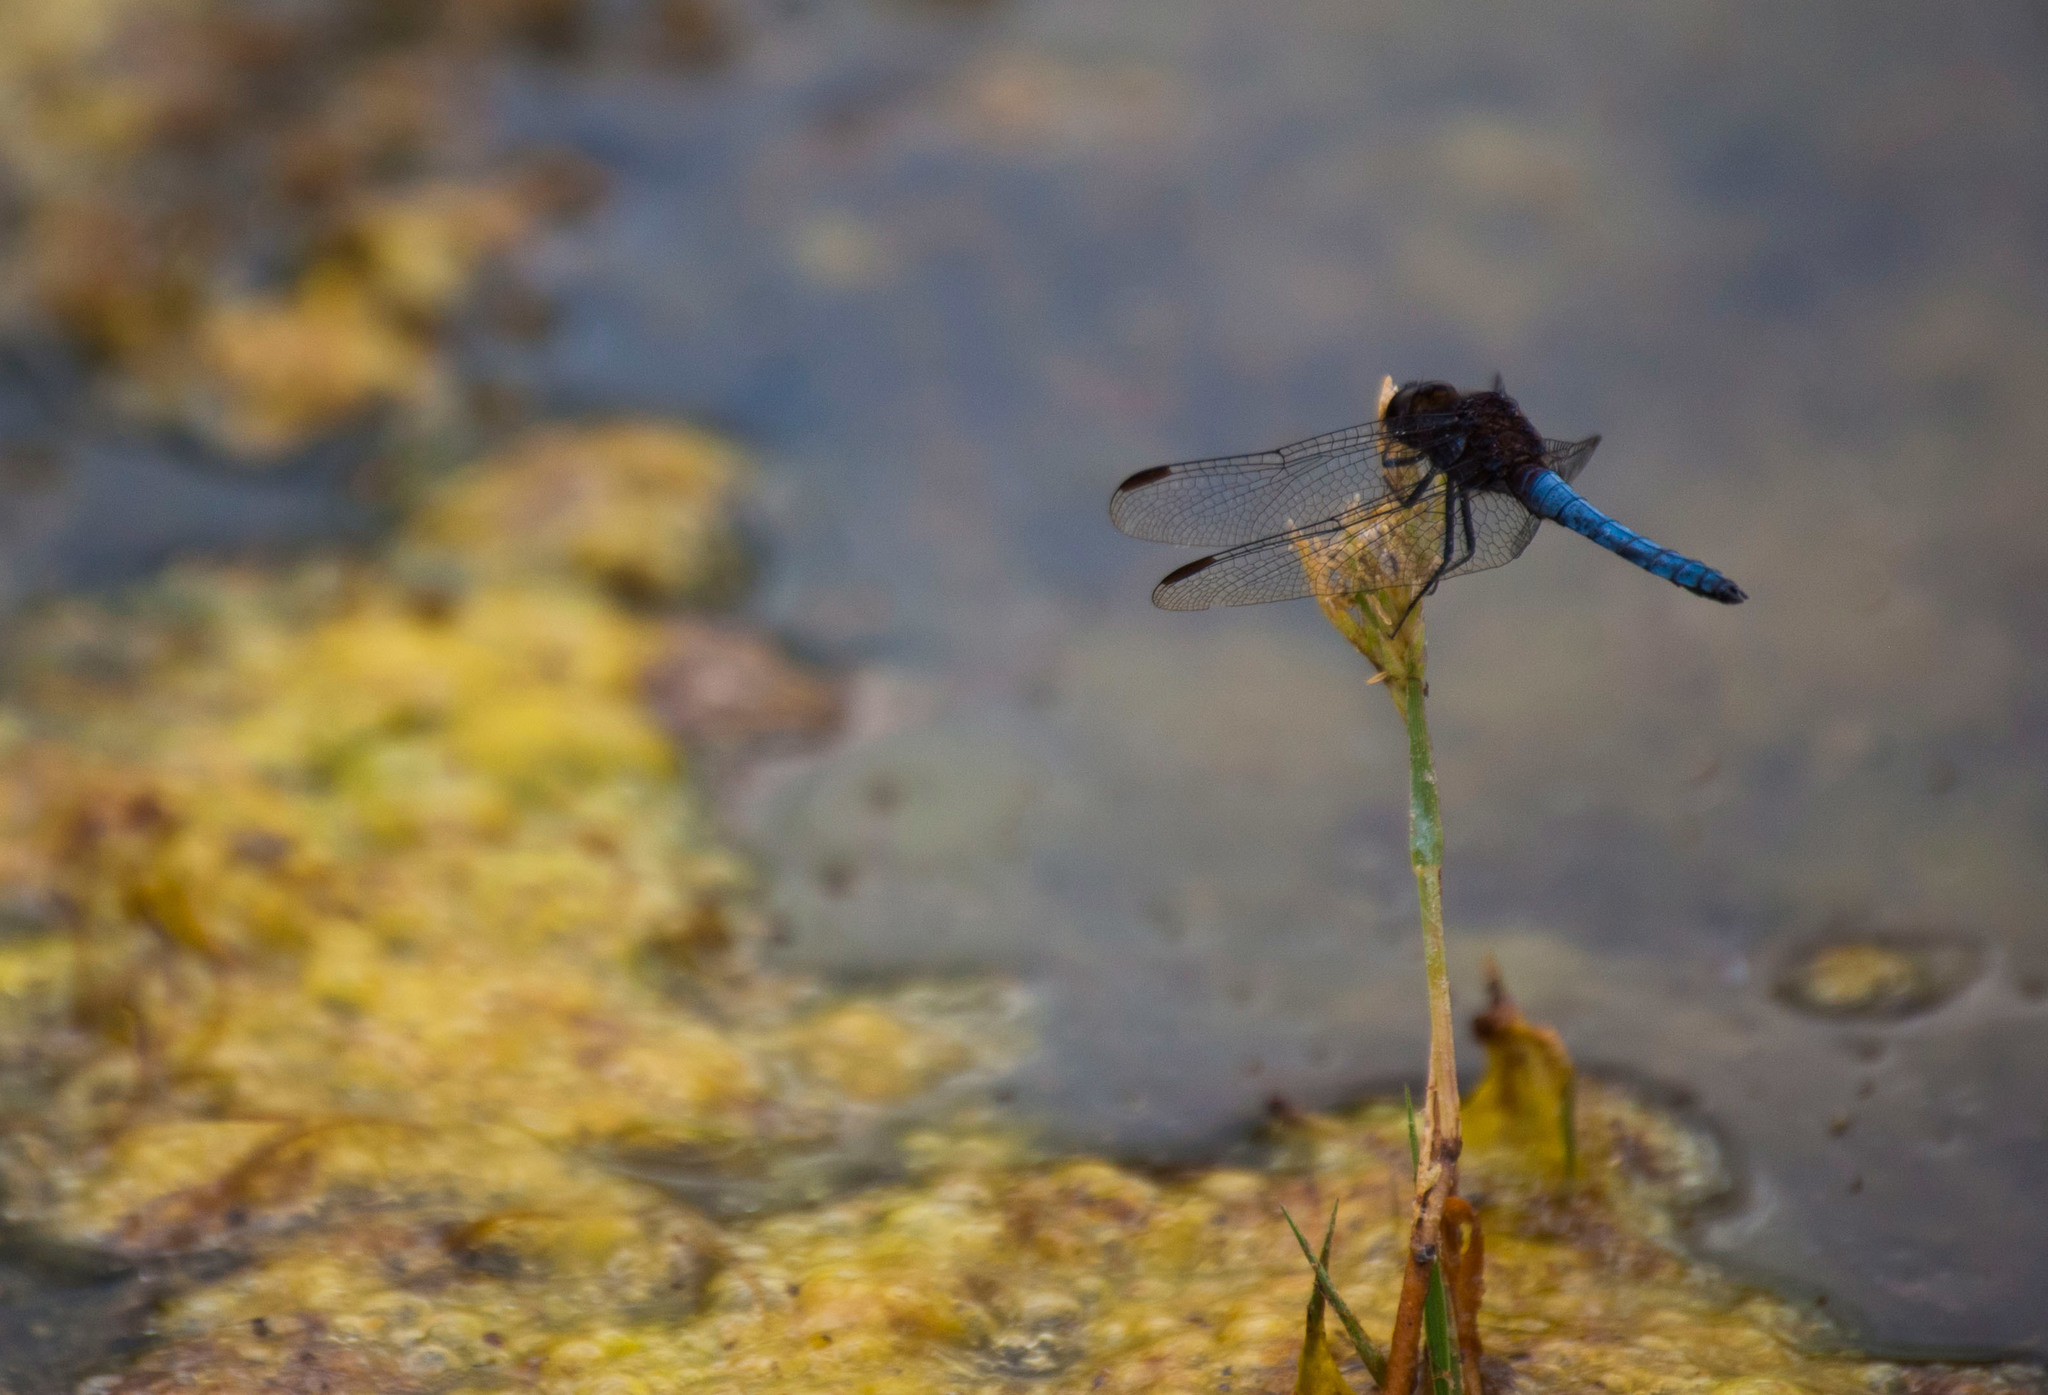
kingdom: Animalia
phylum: Arthropoda
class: Insecta
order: Odonata
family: Libellulidae
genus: Erythrodiplax
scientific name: Erythrodiplax connata
